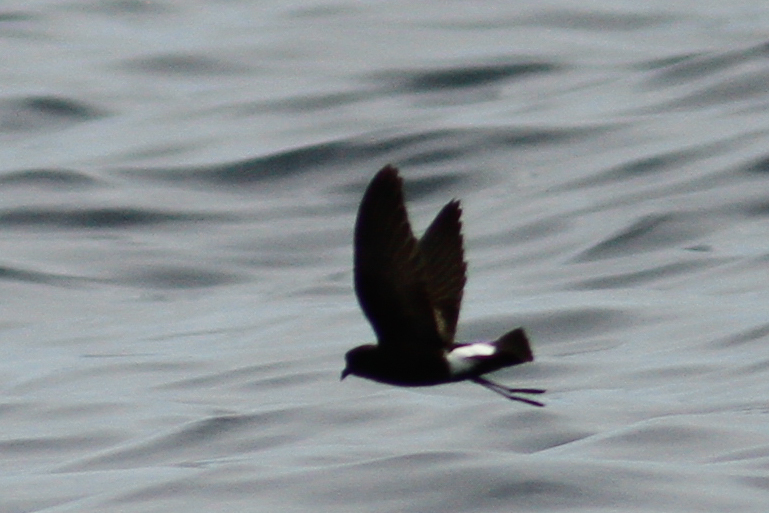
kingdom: Animalia
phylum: Chordata
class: Aves
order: Procellariiformes
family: Hydrobatidae
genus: Oceanites
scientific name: Oceanites oceanicus
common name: Wilson's storm petrel
